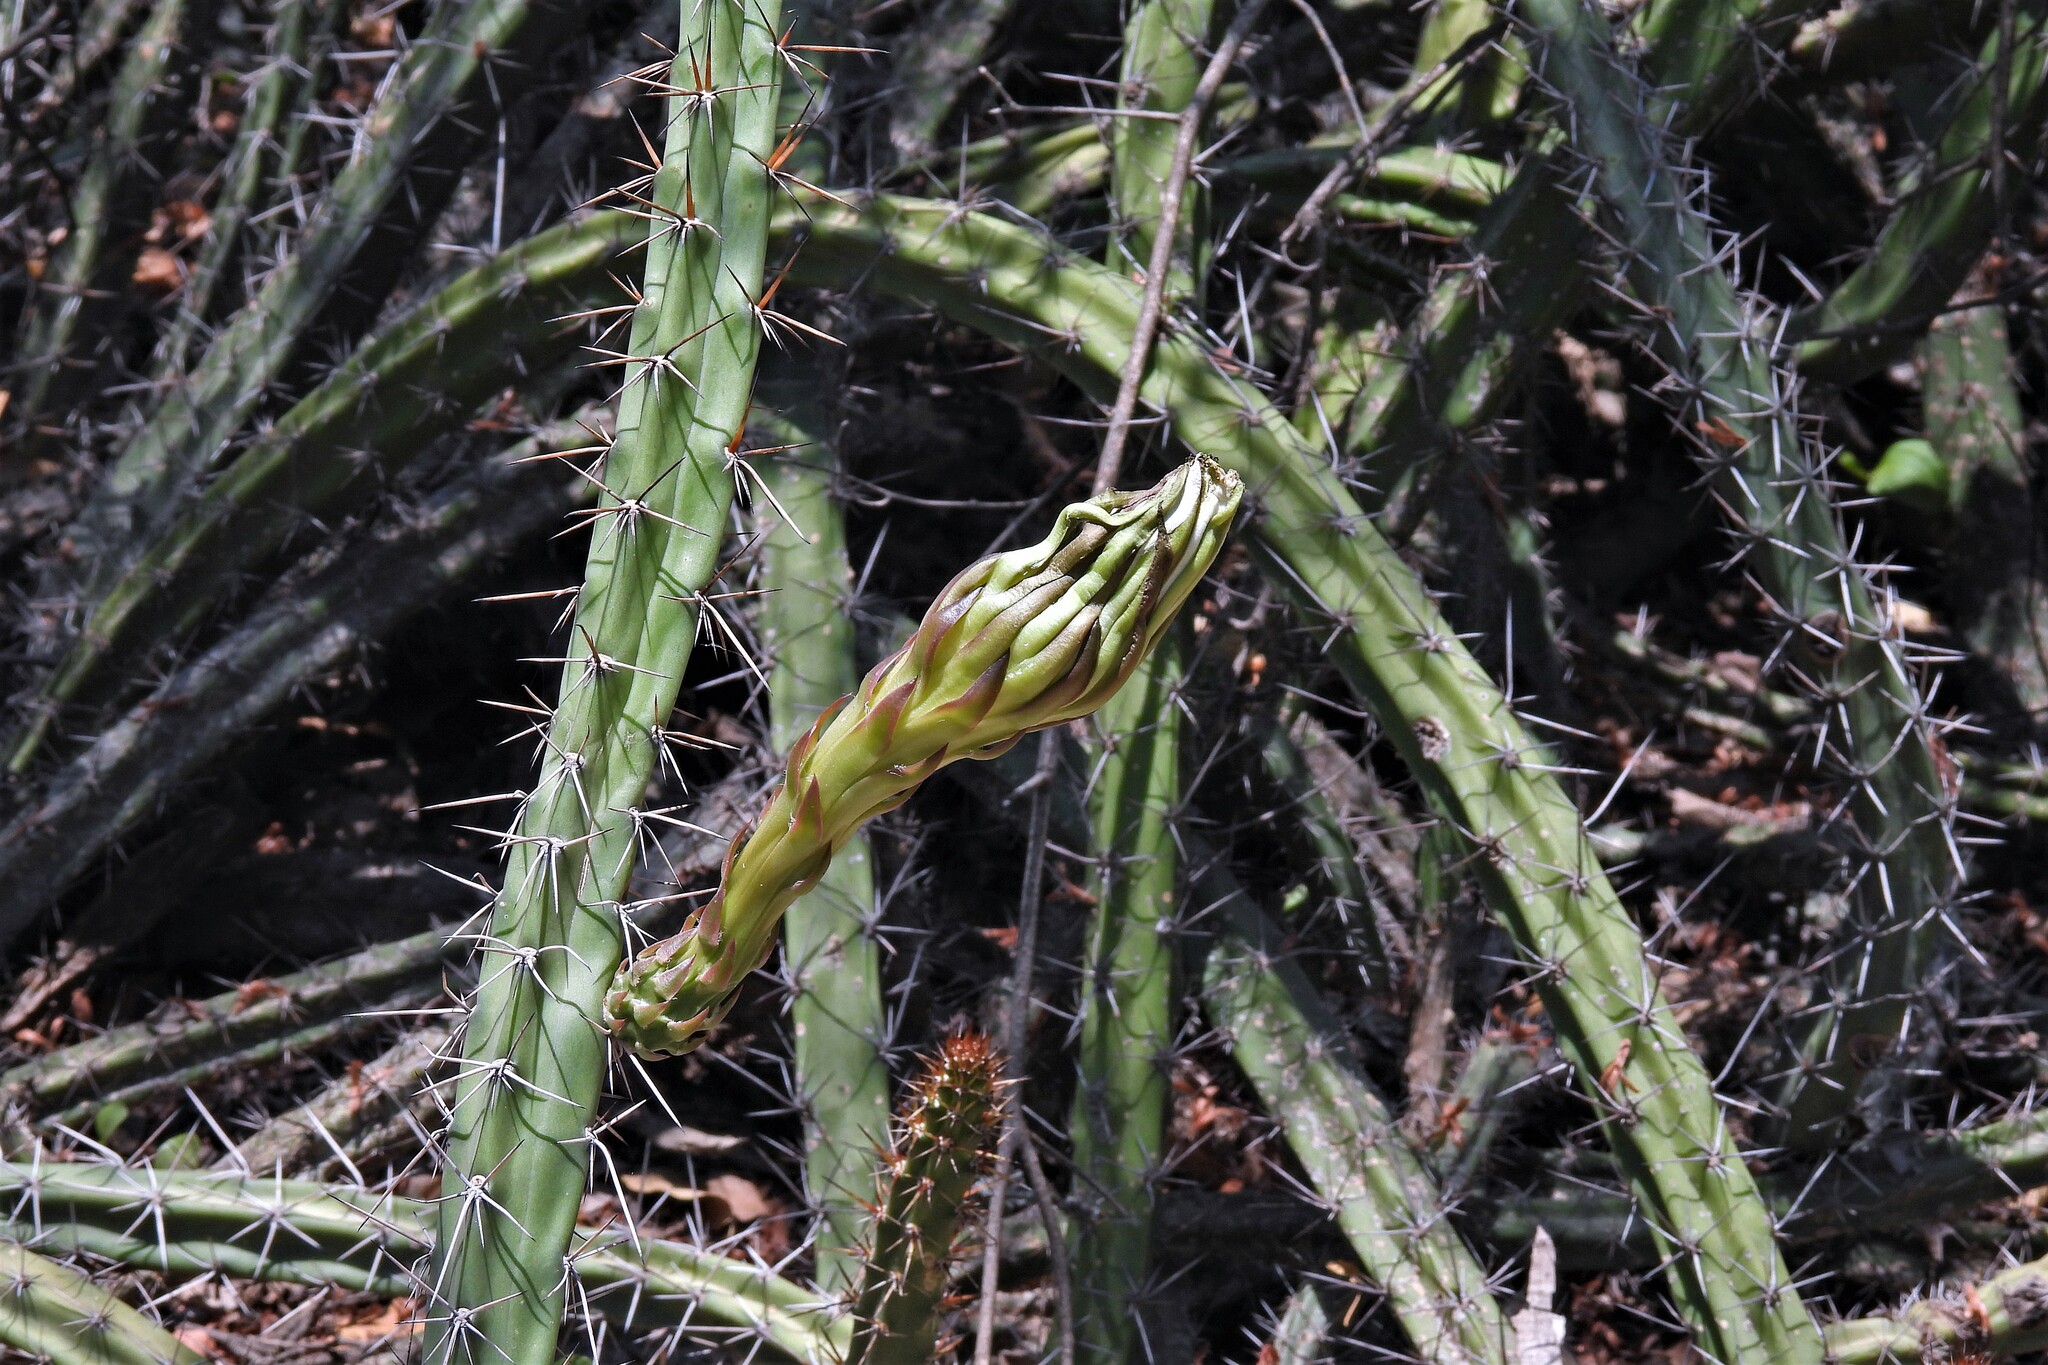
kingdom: Plantae
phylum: Tracheophyta
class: Magnoliopsida
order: Caryophyllales
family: Cactaceae
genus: Harrisia
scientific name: Harrisia pomanensis
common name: Midnight-lady
